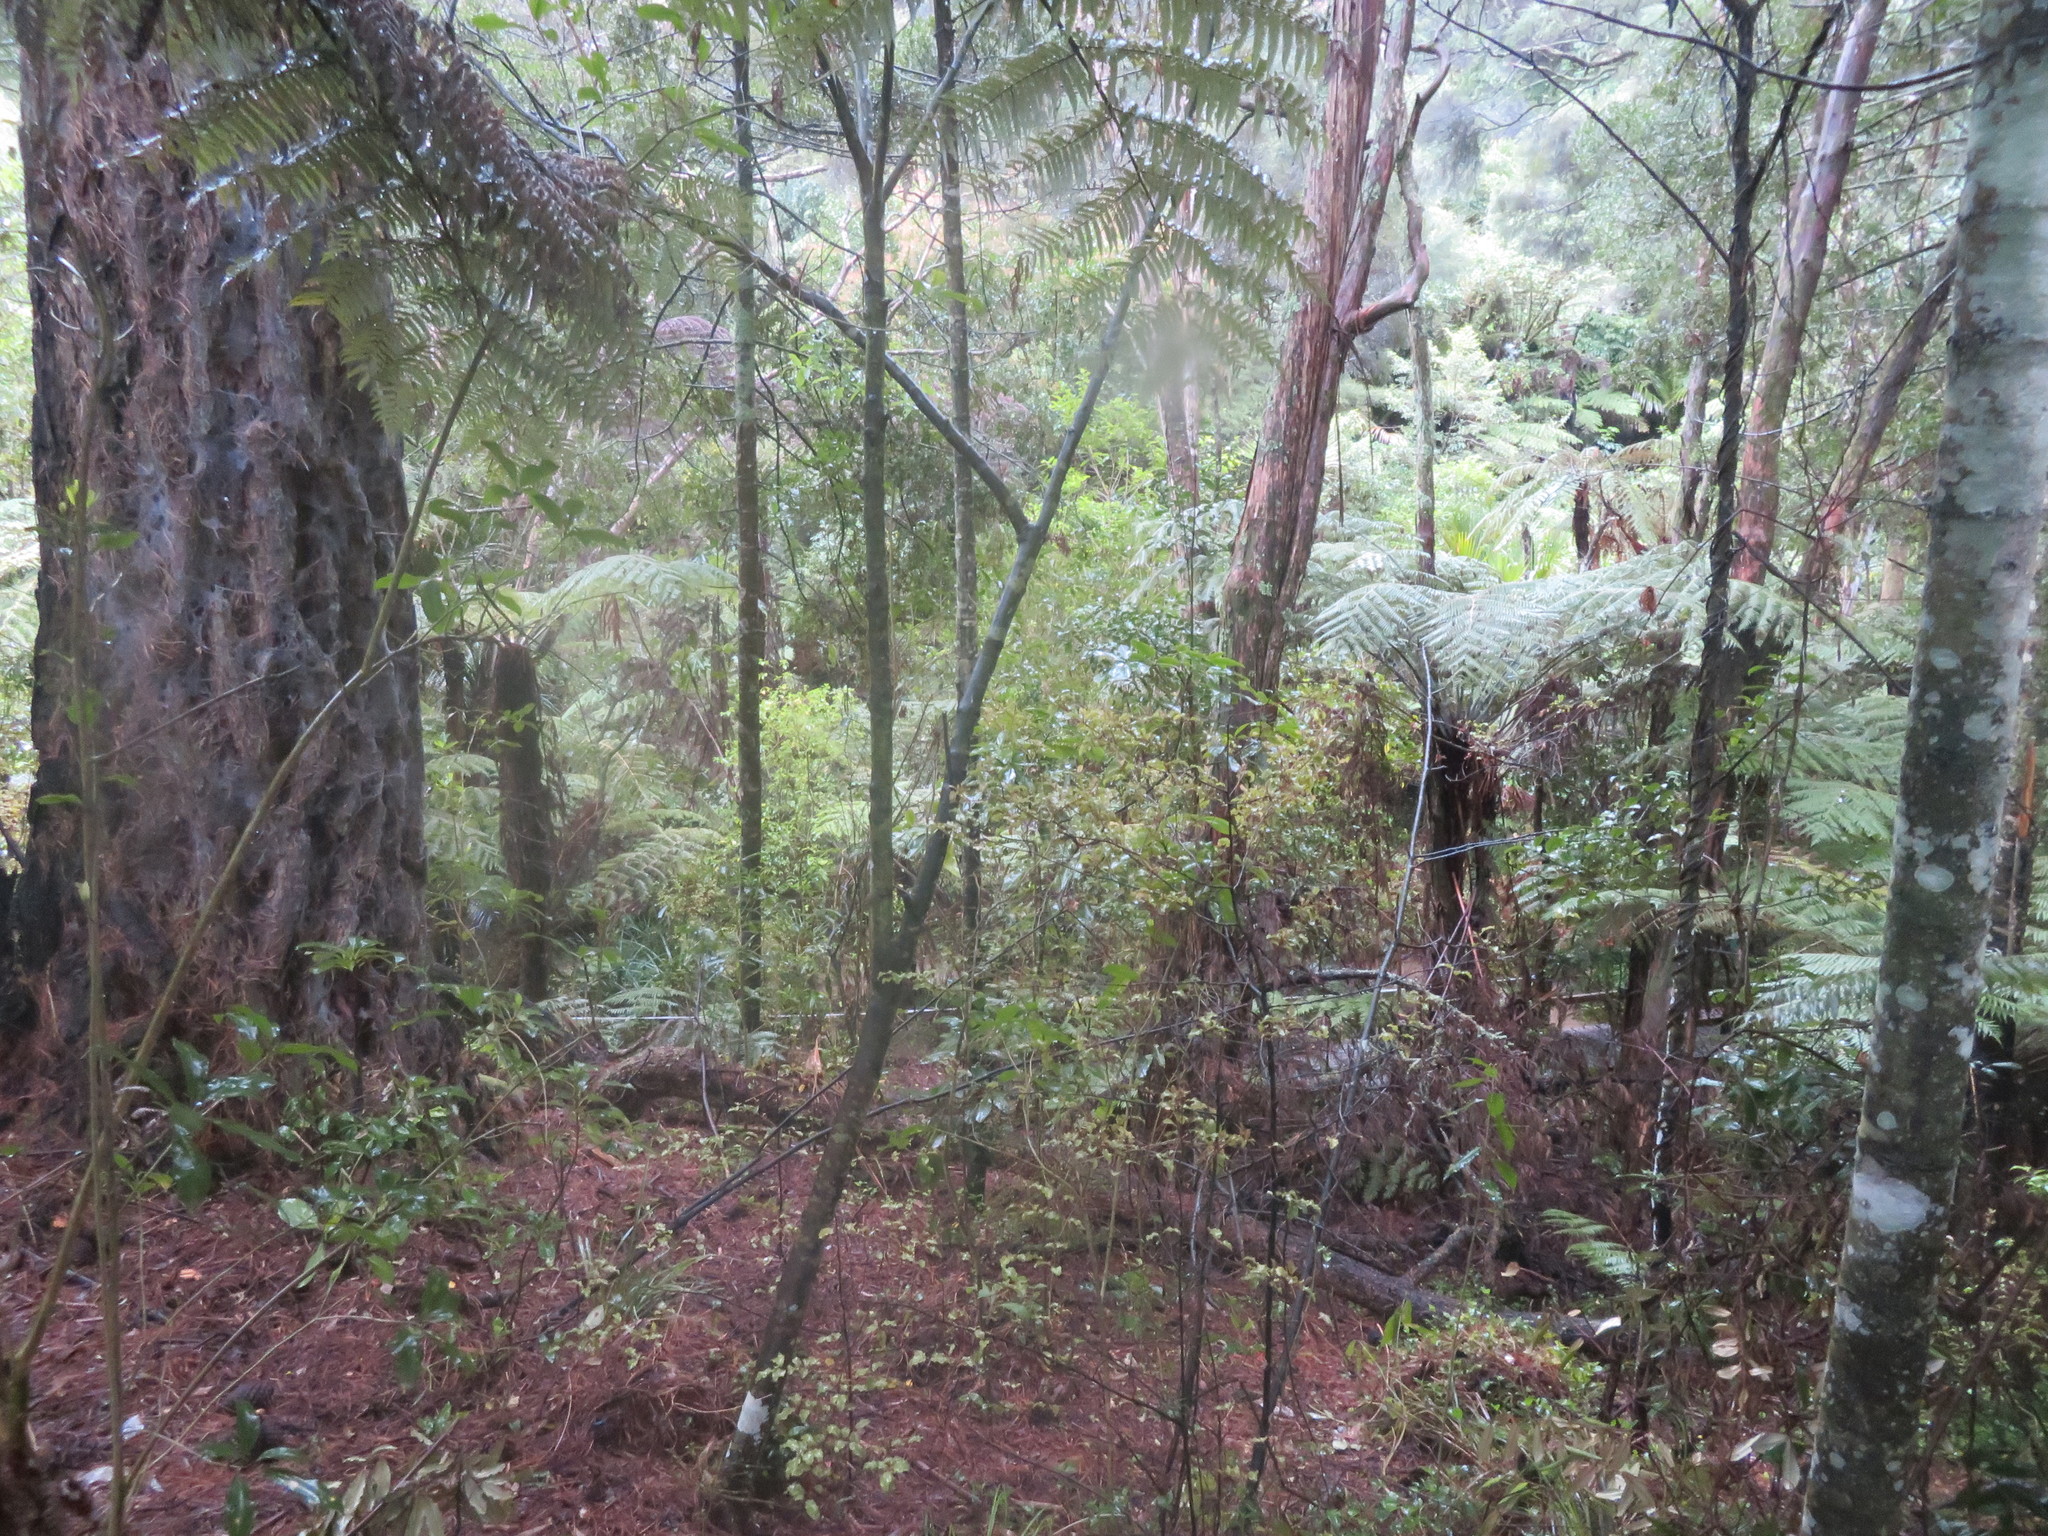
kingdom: Plantae
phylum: Tracheophyta
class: Pinopsida
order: Pinales
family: Phyllocladaceae
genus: Phyllocladus
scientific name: Phyllocladus trichomanoides
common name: Celery pine
